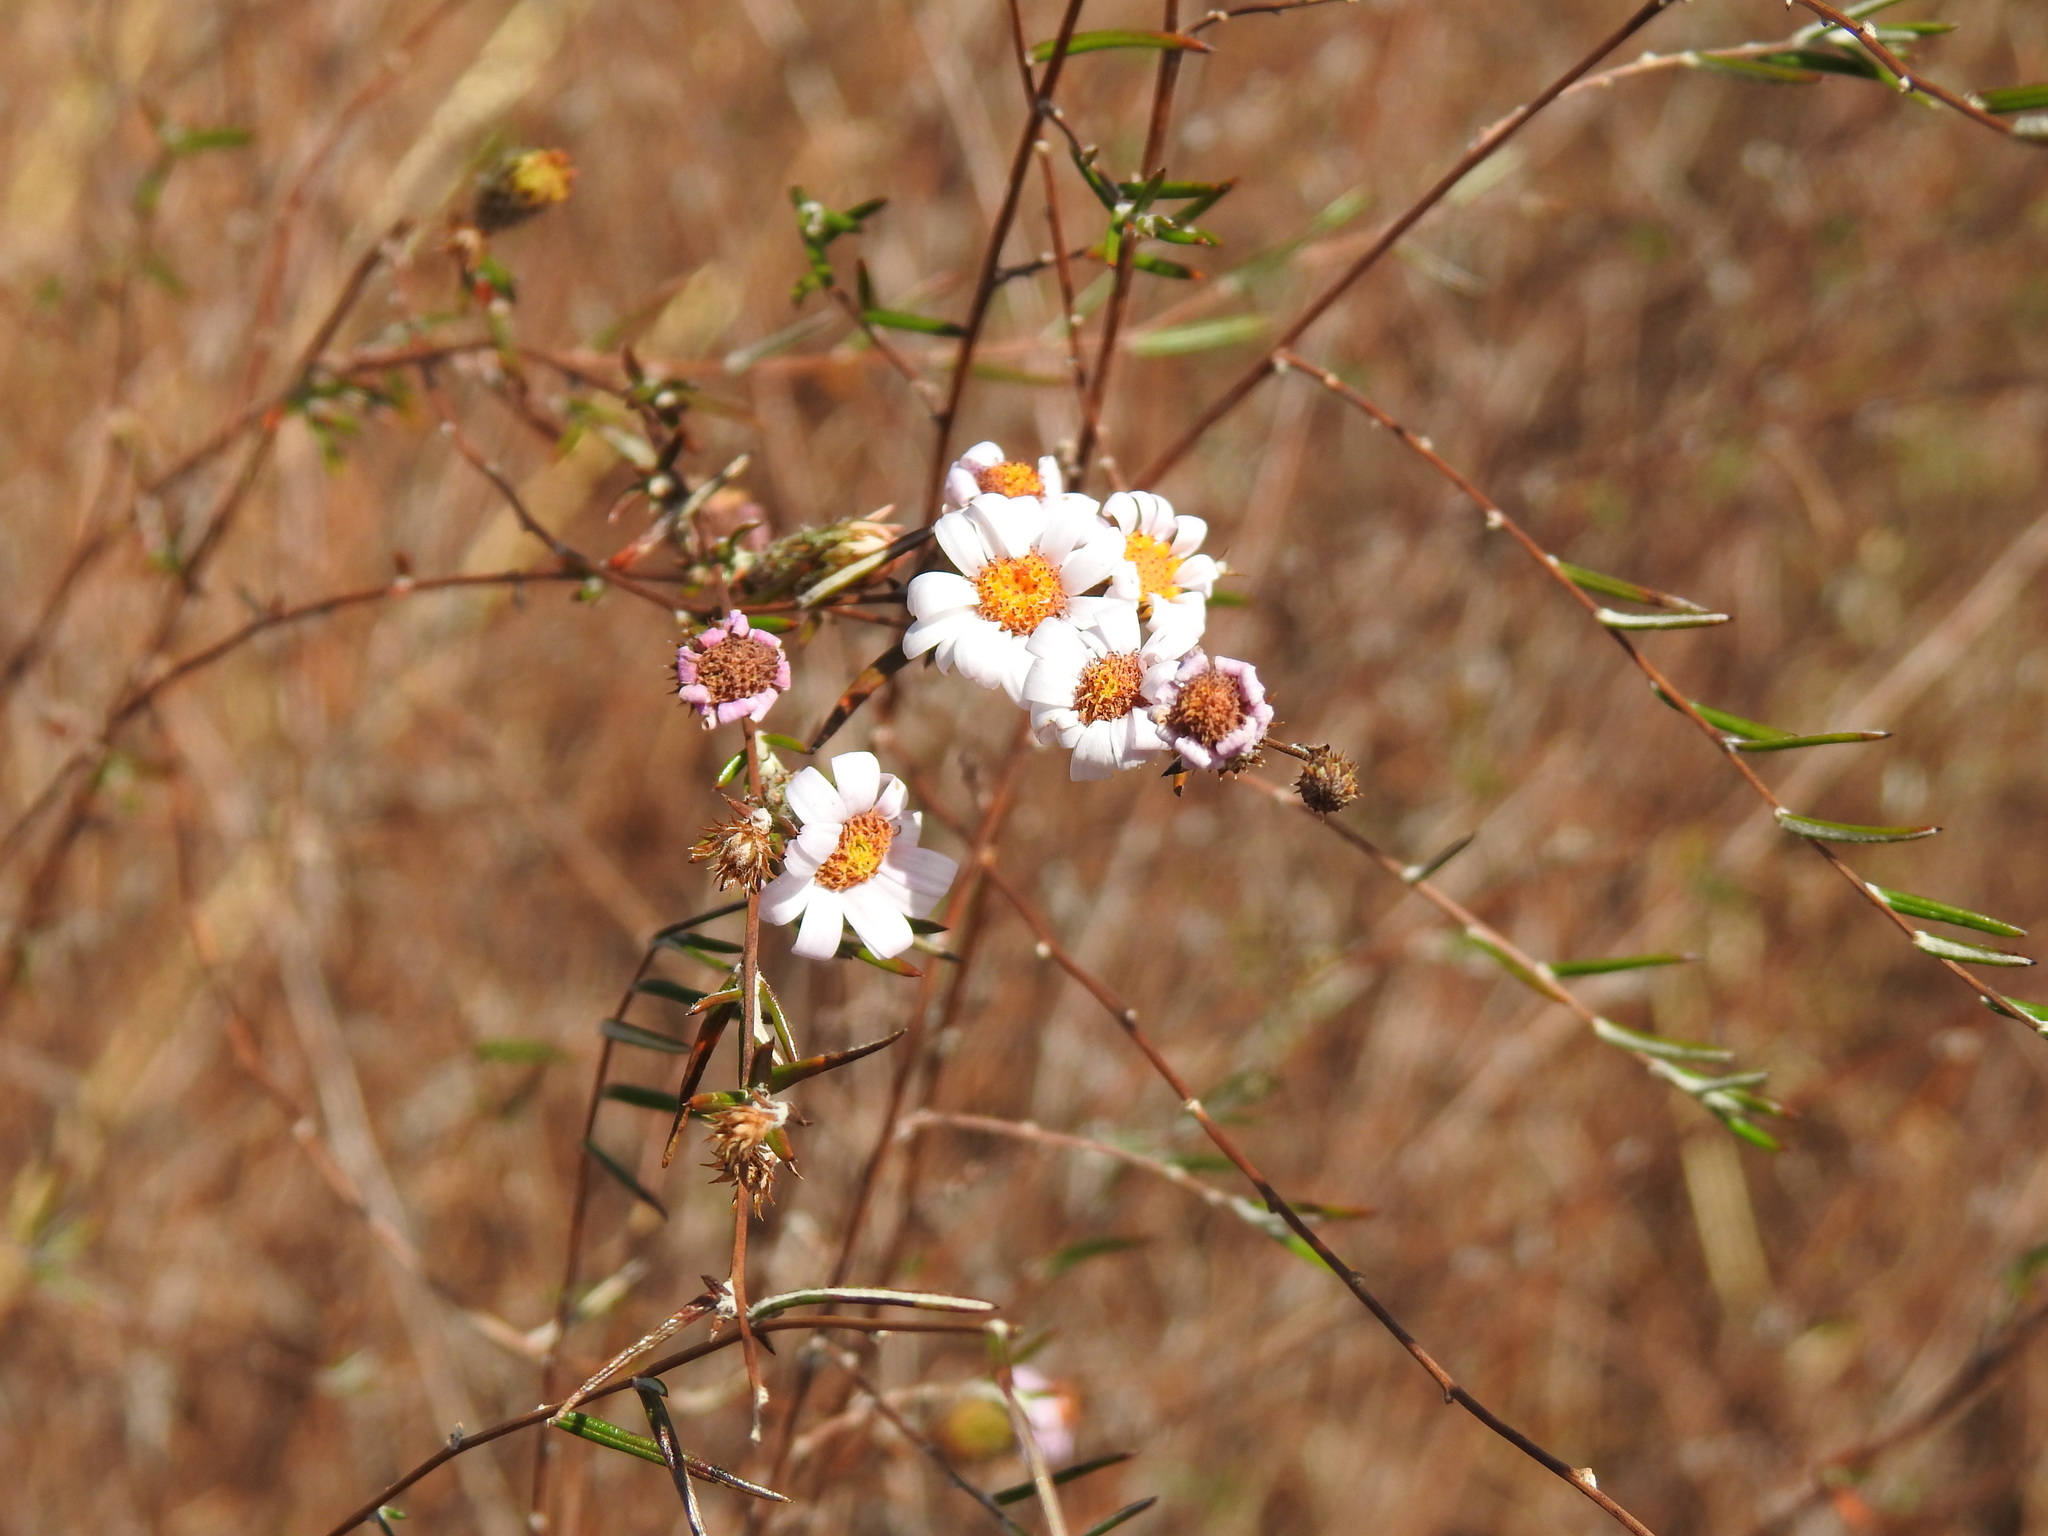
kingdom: Plantae
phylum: Tracheophyta
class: Magnoliopsida
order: Asterales
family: Asteraceae
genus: Athrixia
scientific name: Athrixia elata
